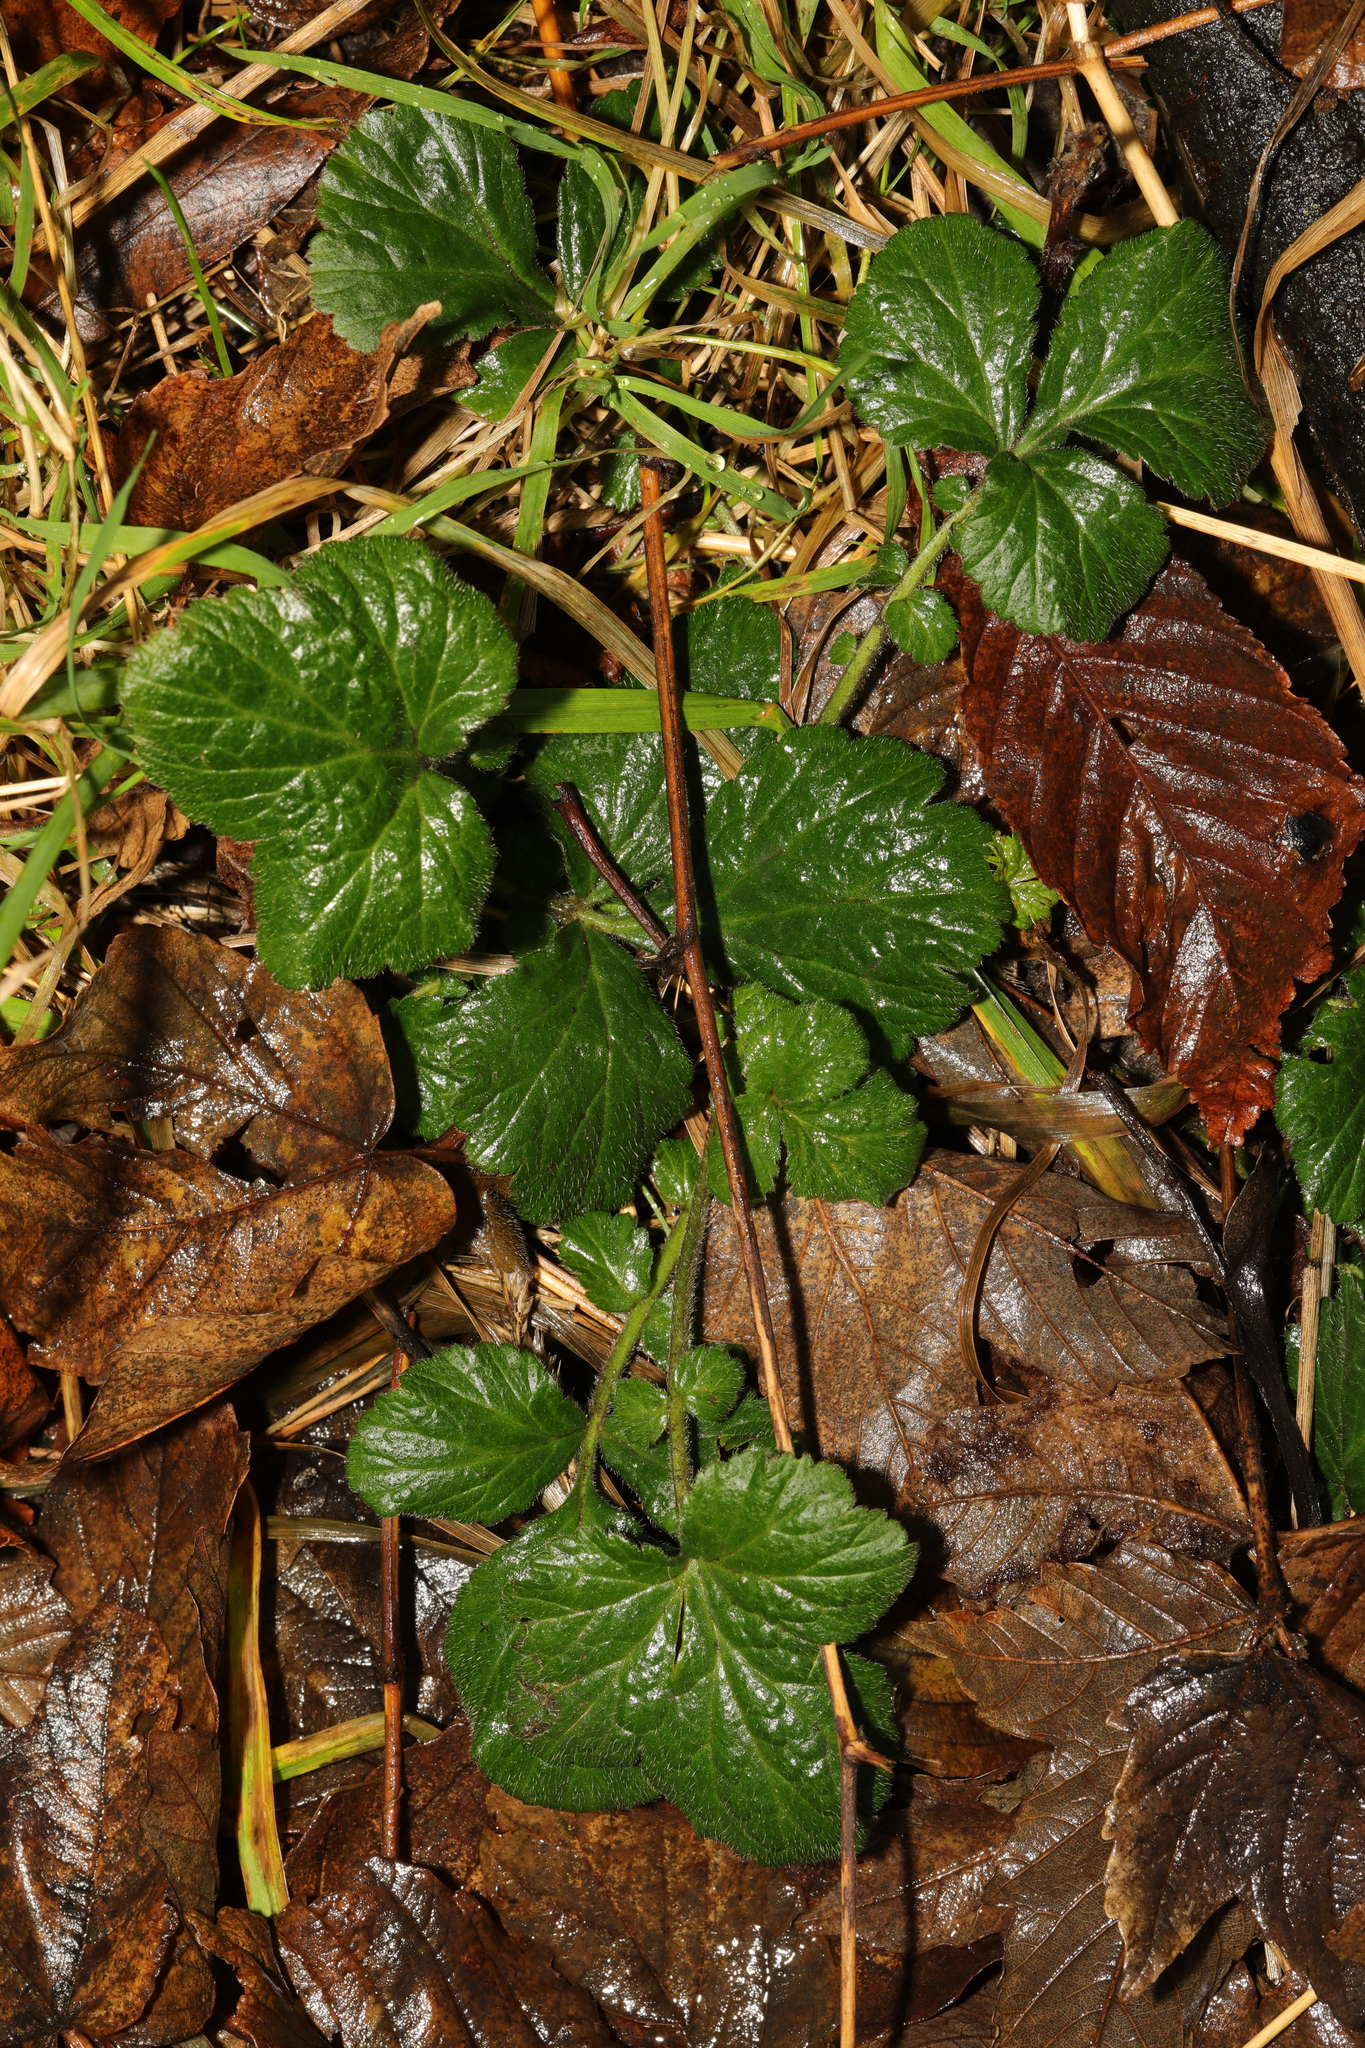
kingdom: Plantae
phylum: Tracheophyta
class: Magnoliopsida
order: Rosales
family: Rosaceae
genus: Geum
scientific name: Geum urbanum
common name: Wood avens
